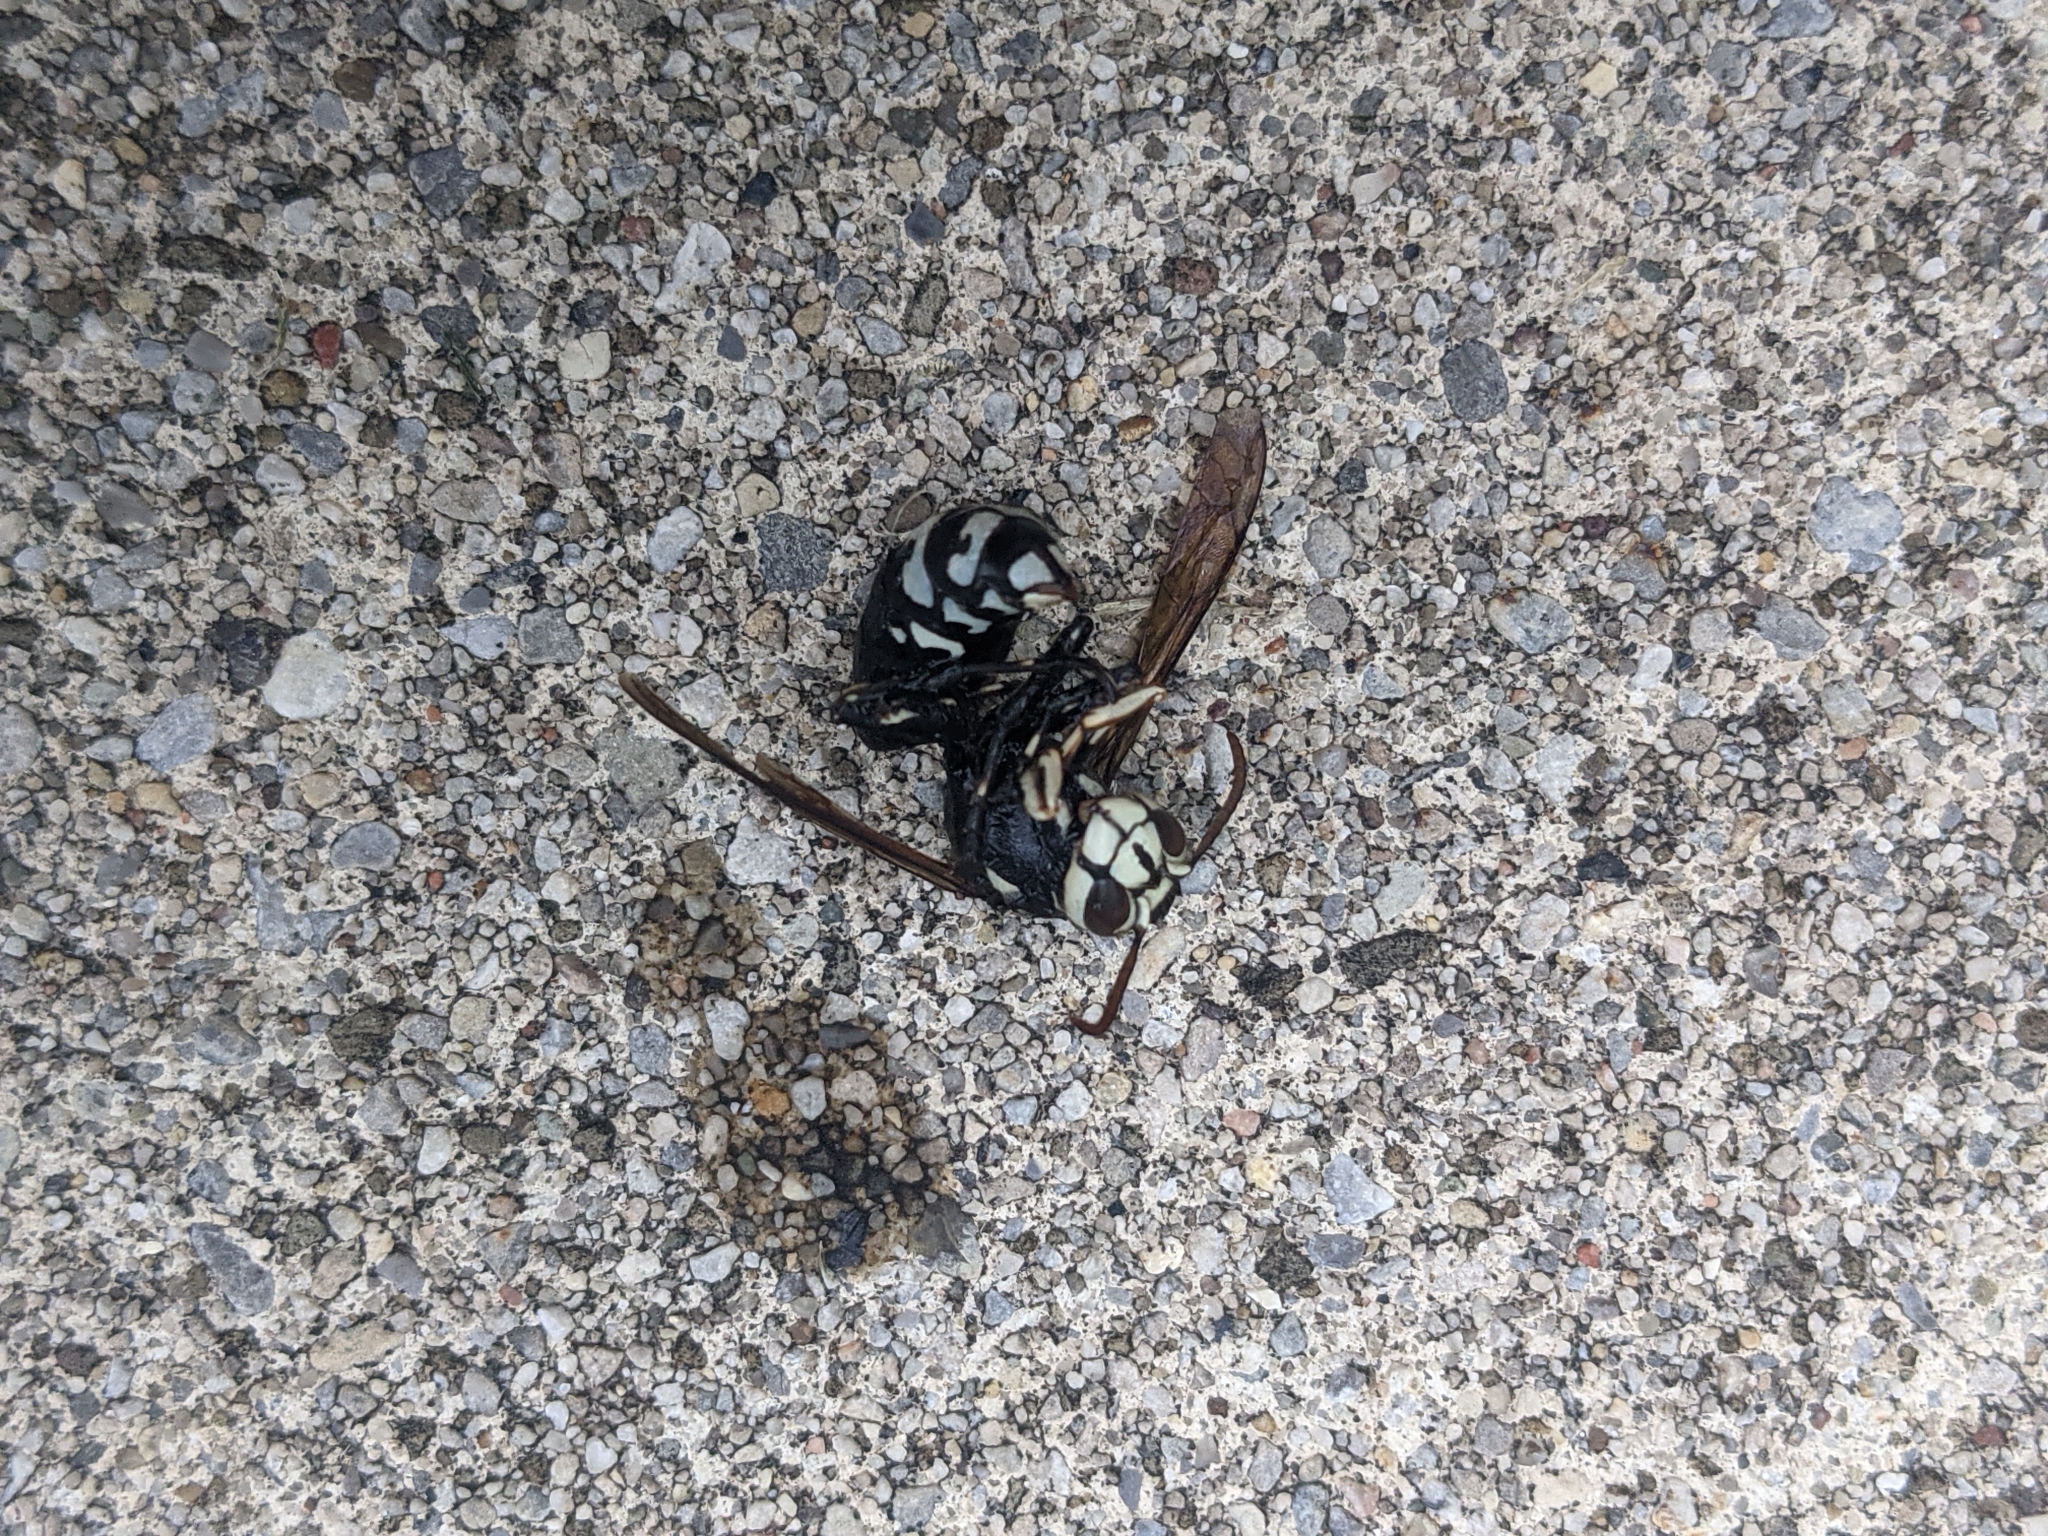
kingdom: Animalia
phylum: Arthropoda
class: Insecta
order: Hymenoptera
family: Vespidae
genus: Dolichovespula
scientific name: Dolichovespula maculata
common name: Bald-faced hornet
